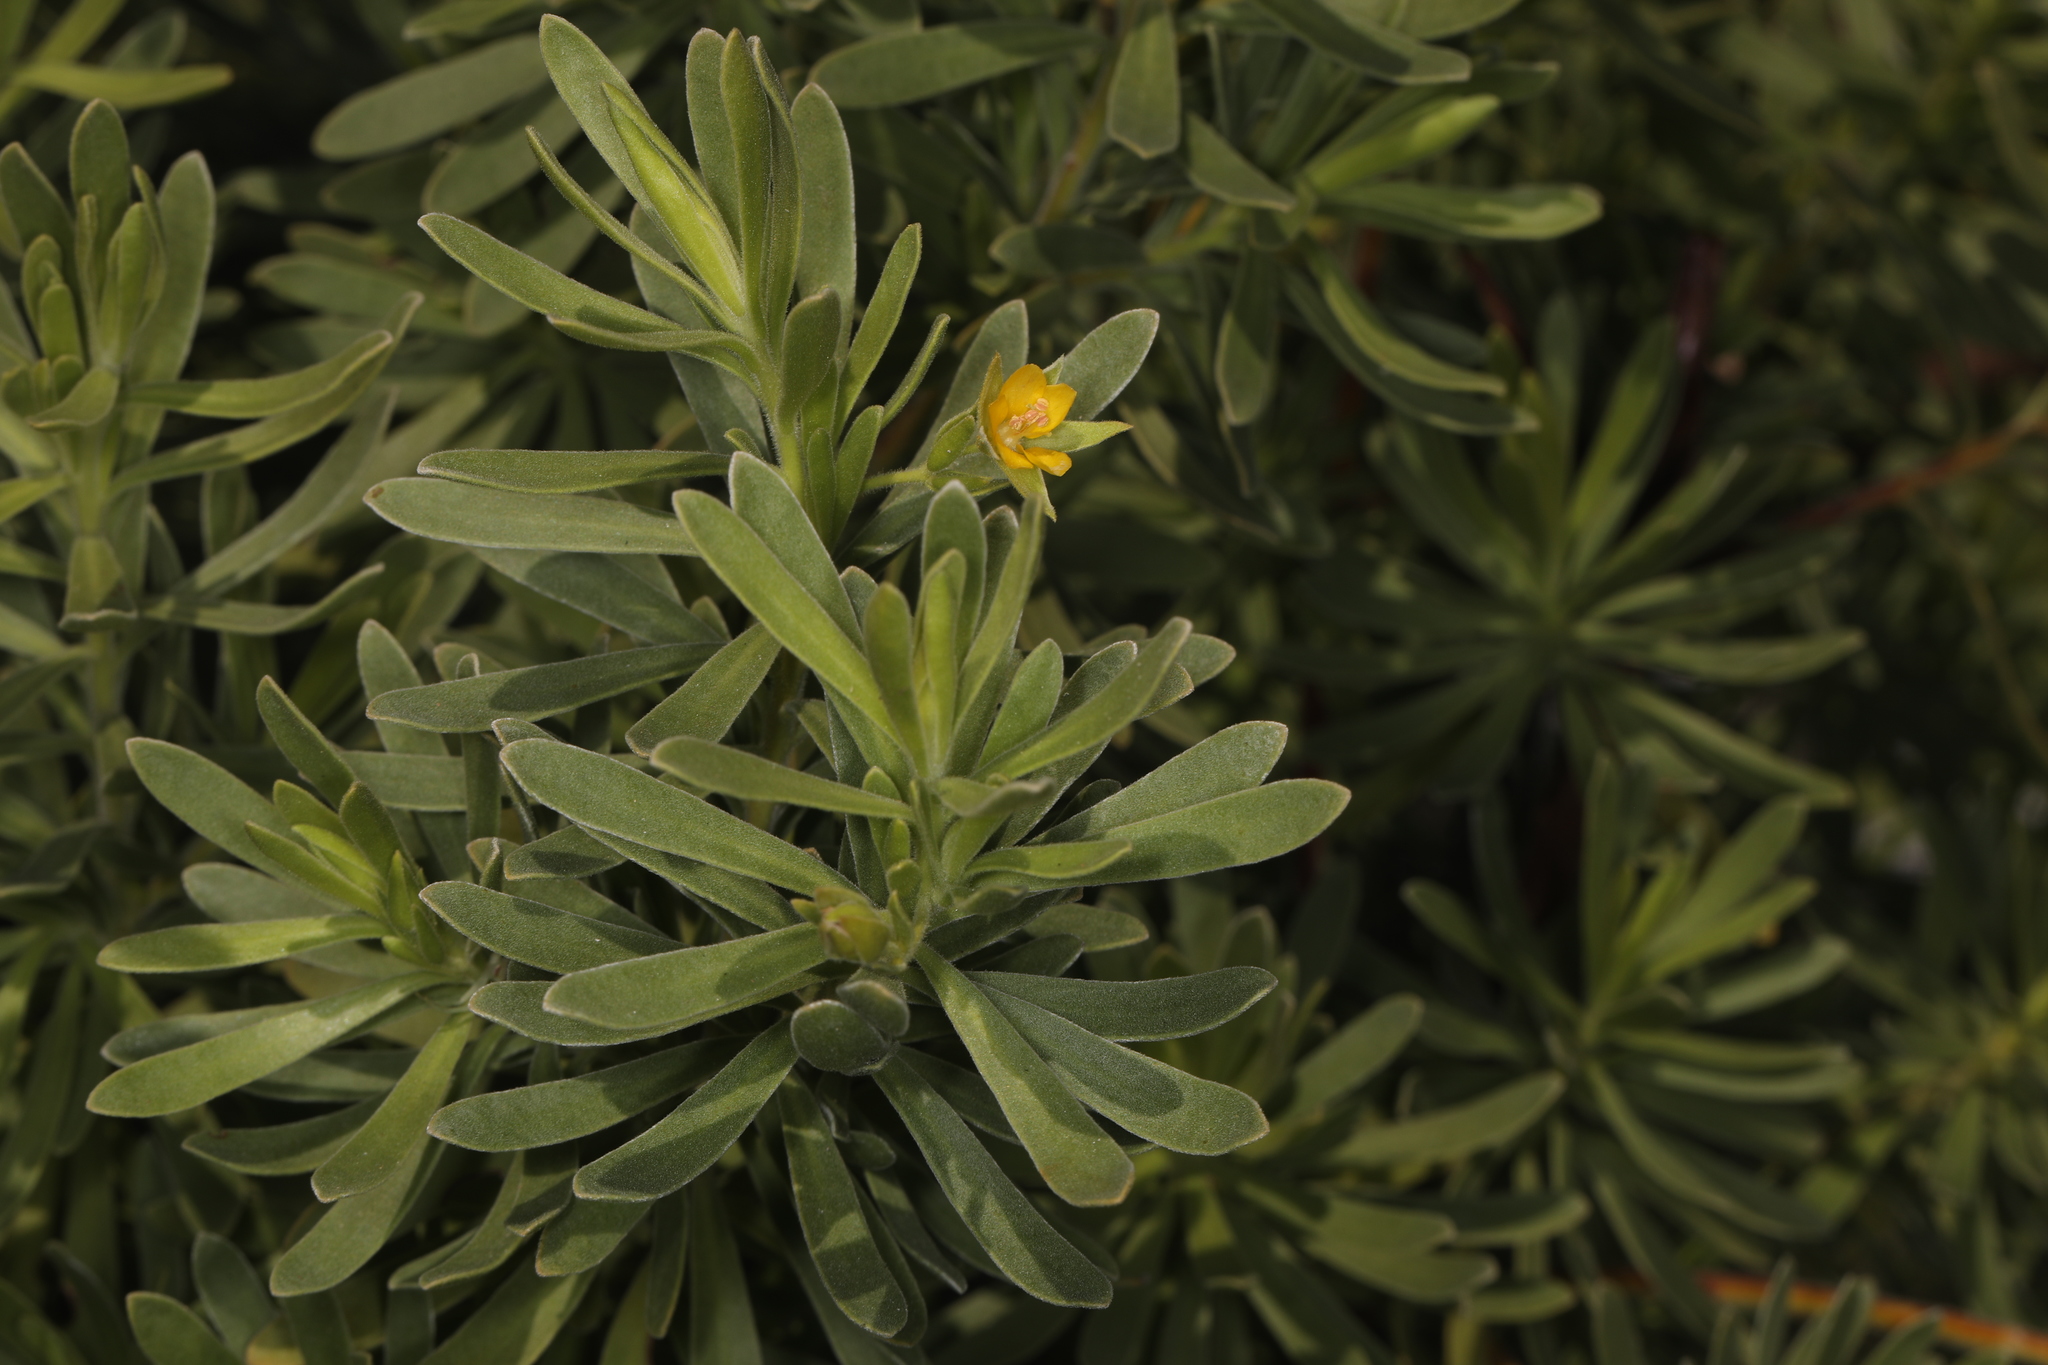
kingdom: Plantae
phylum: Tracheophyta
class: Magnoliopsida
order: Fabales
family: Surianaceae
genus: Suriana
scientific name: Suriana maritima
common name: Bay-cedar
